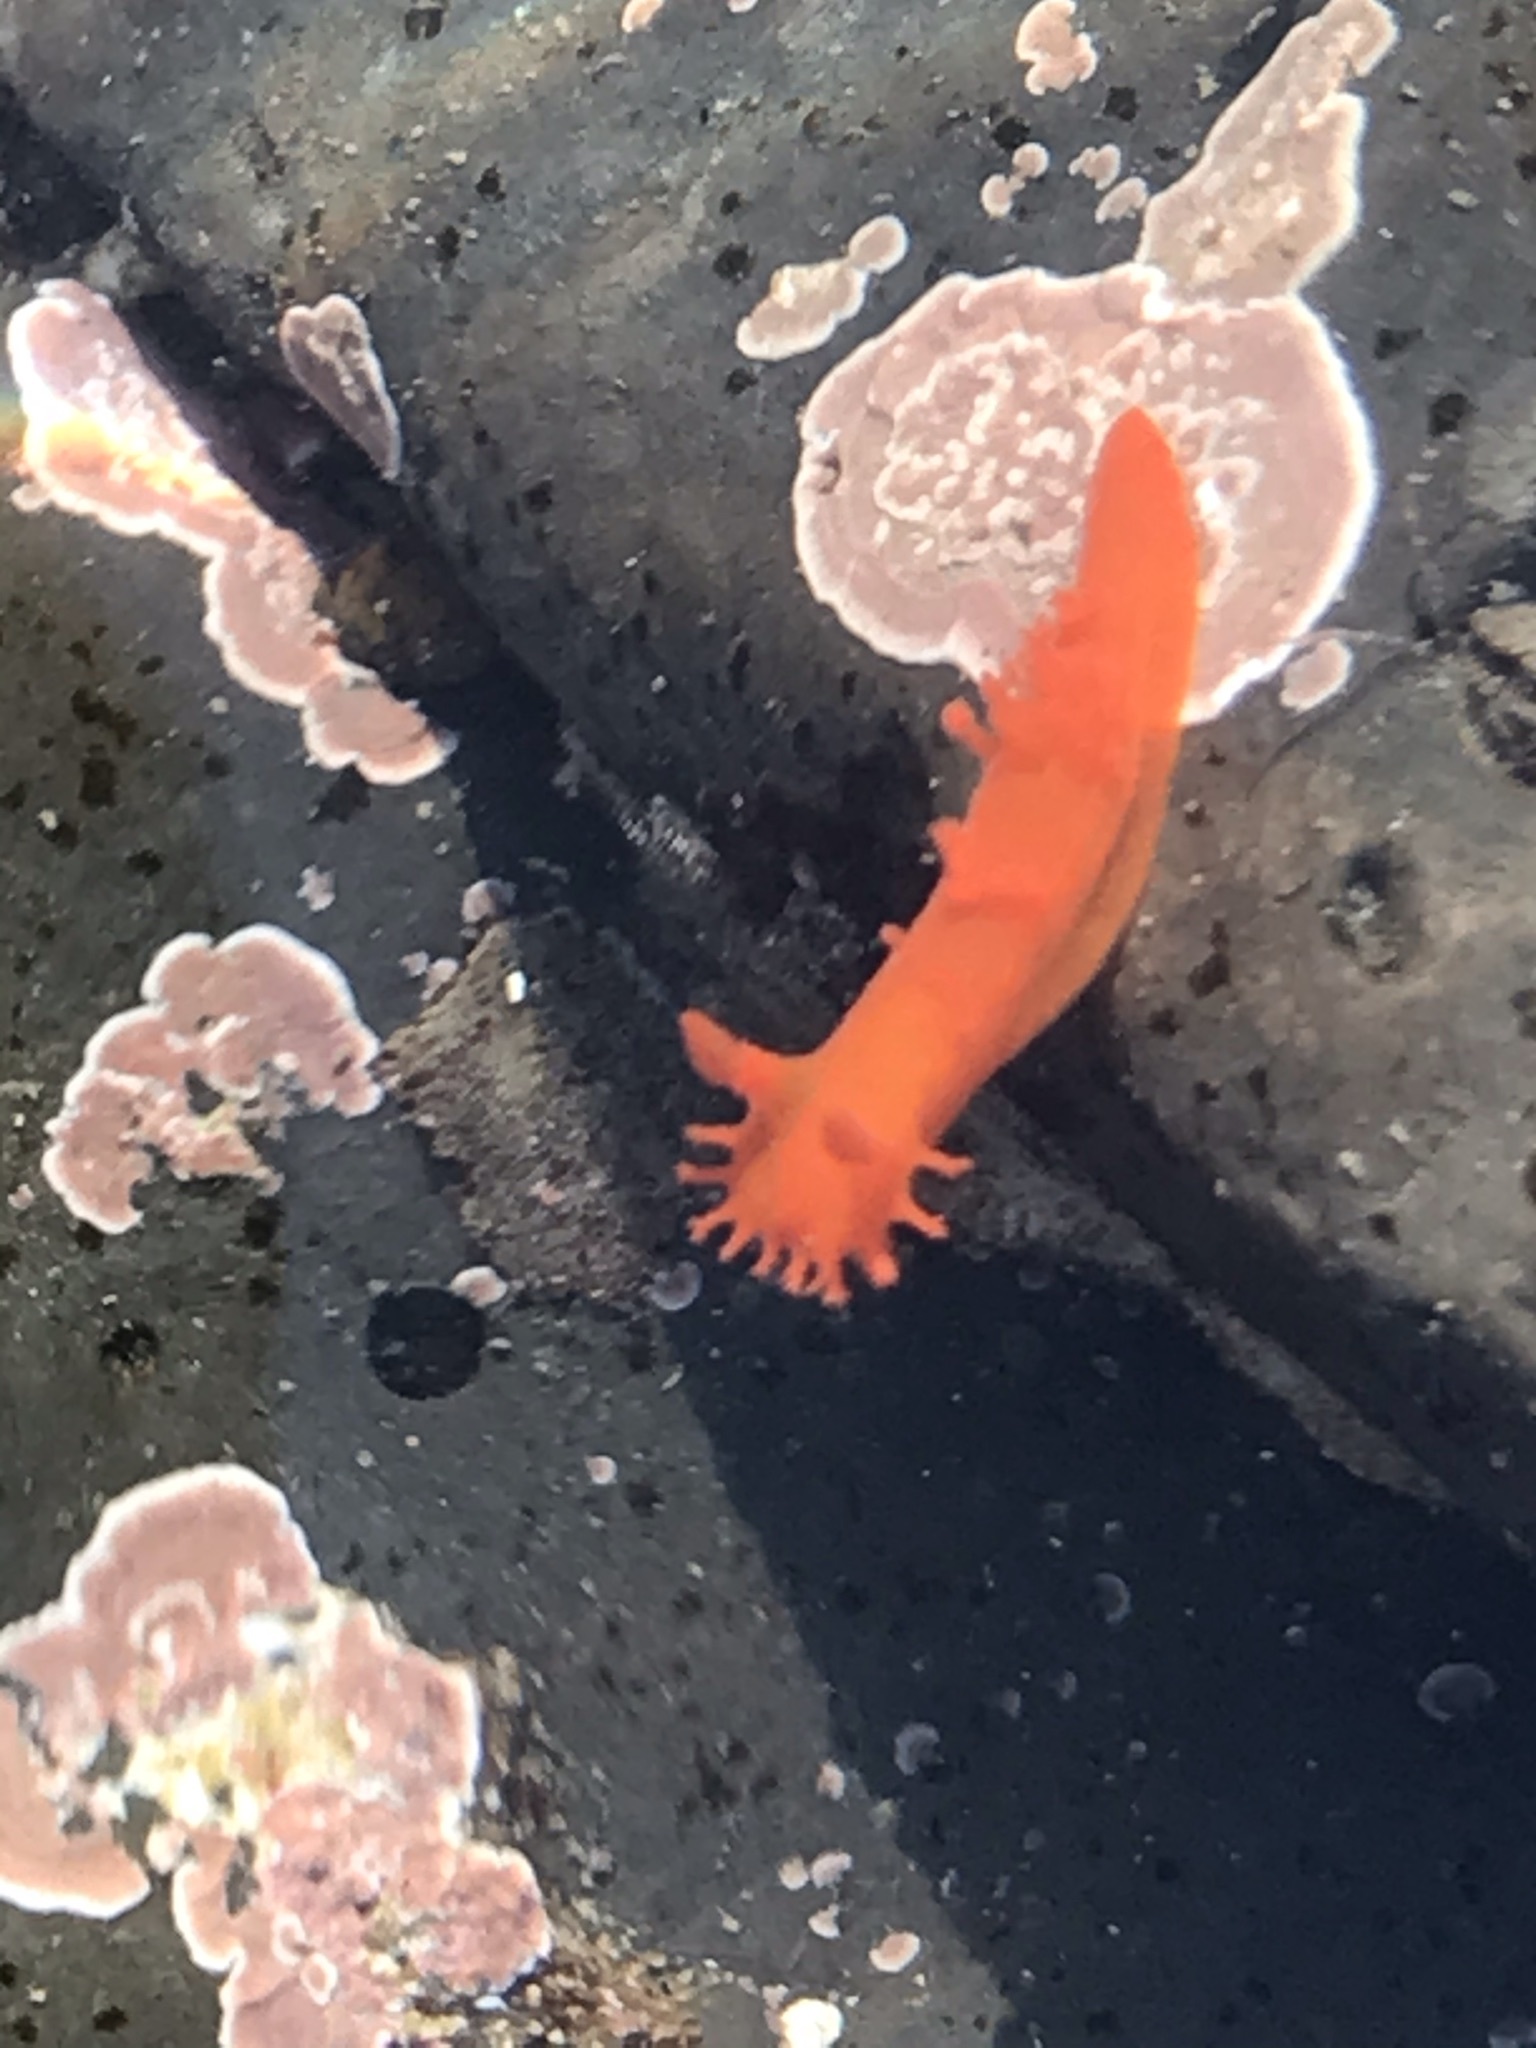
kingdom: Animalia
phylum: Mollusca
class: Gastropoda
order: Nudibranchia
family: Polyceridae
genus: Triopha
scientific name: Triopha maculata
